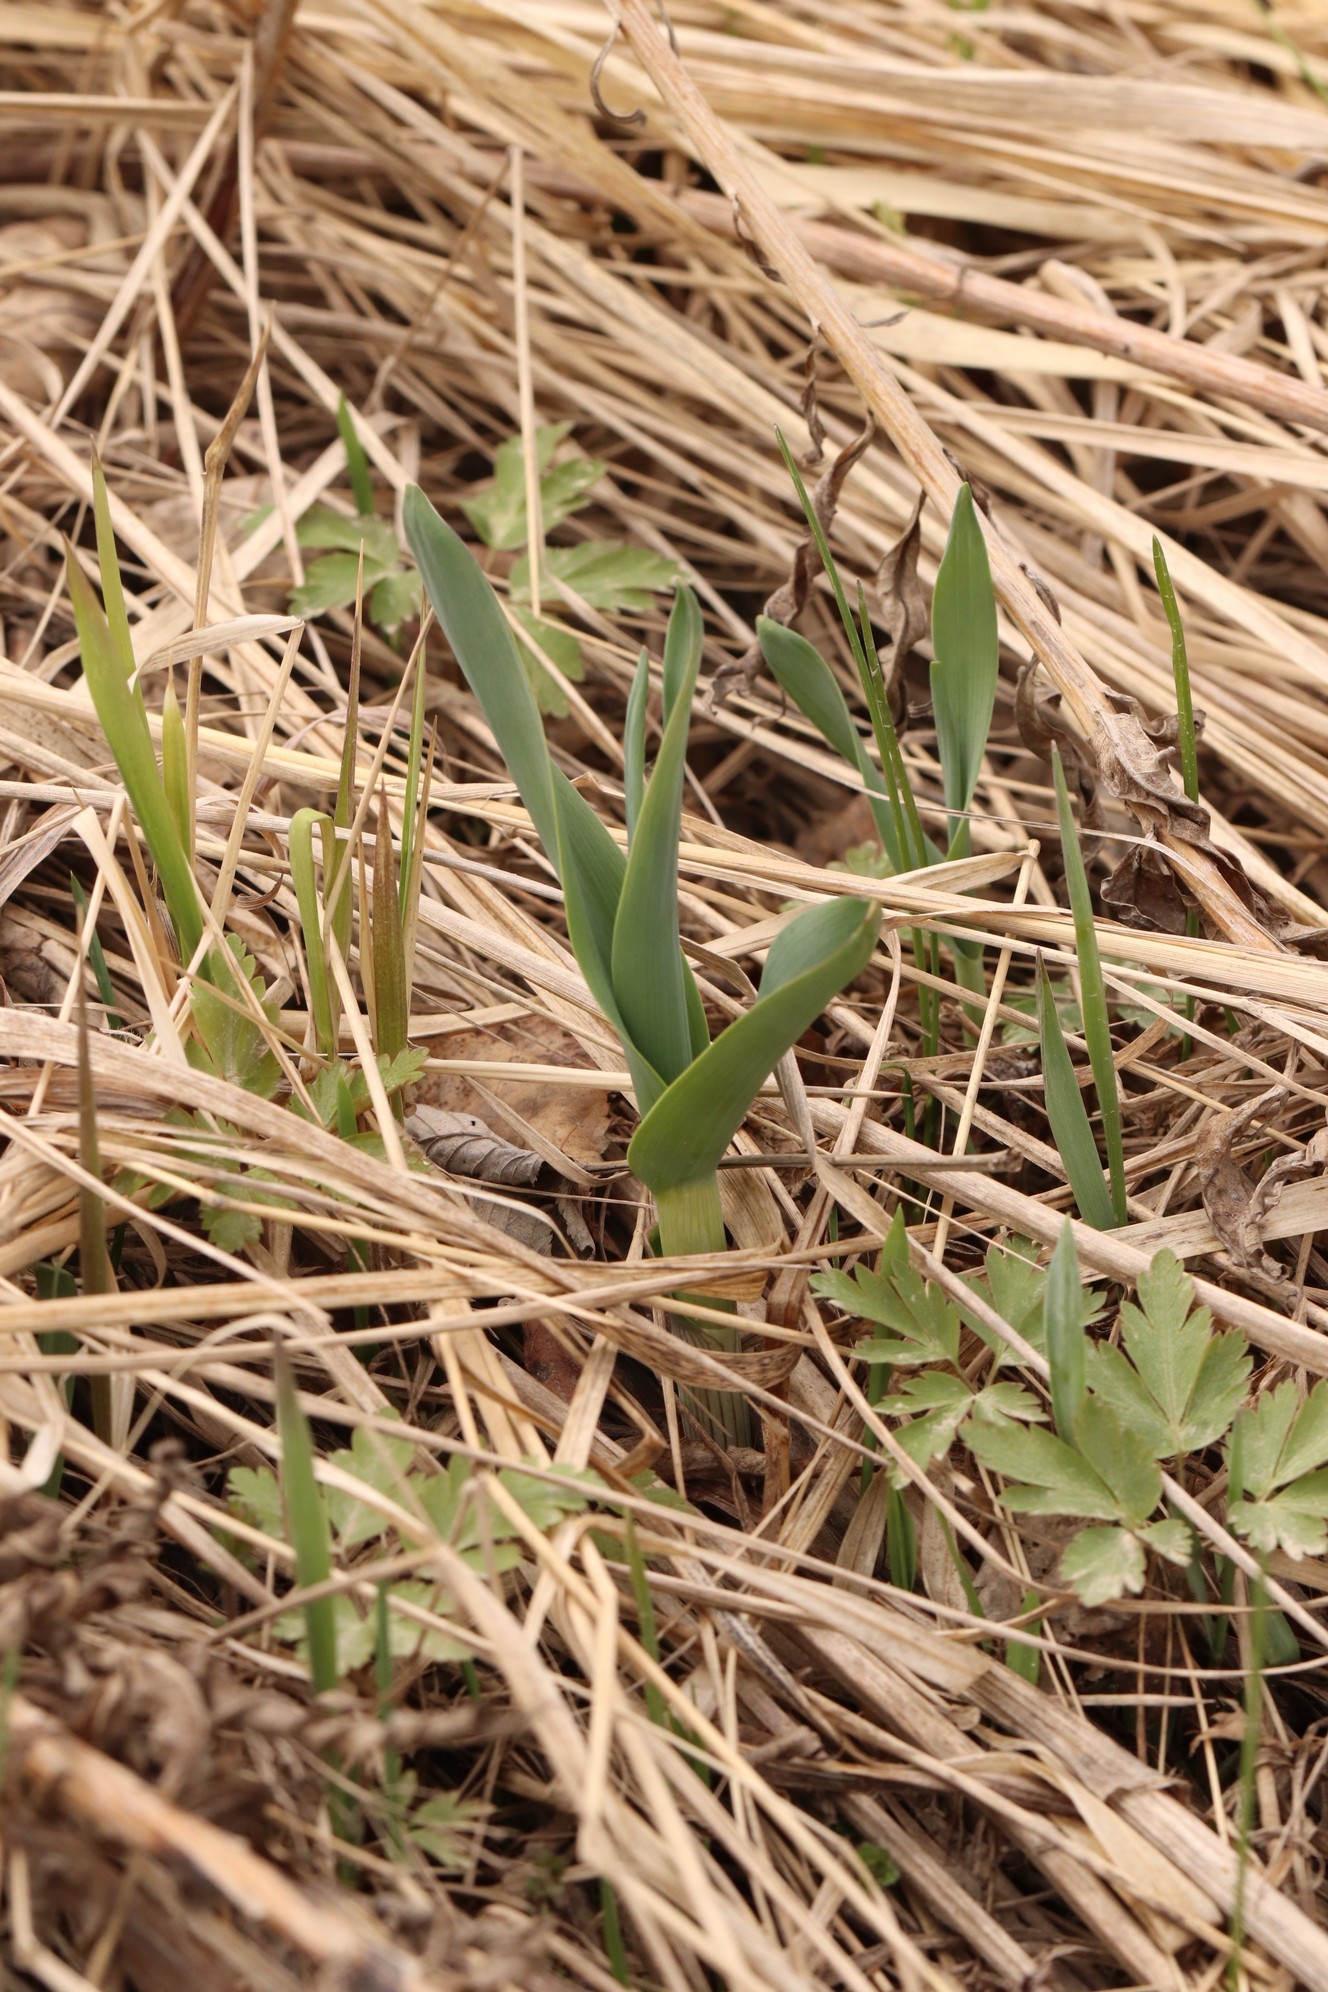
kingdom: Plantae
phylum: Tracheophyta
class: Liliopsida
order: Asparagales
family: Amaryllidaceae
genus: Allium
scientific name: Allium obliquum
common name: Oblique onion
